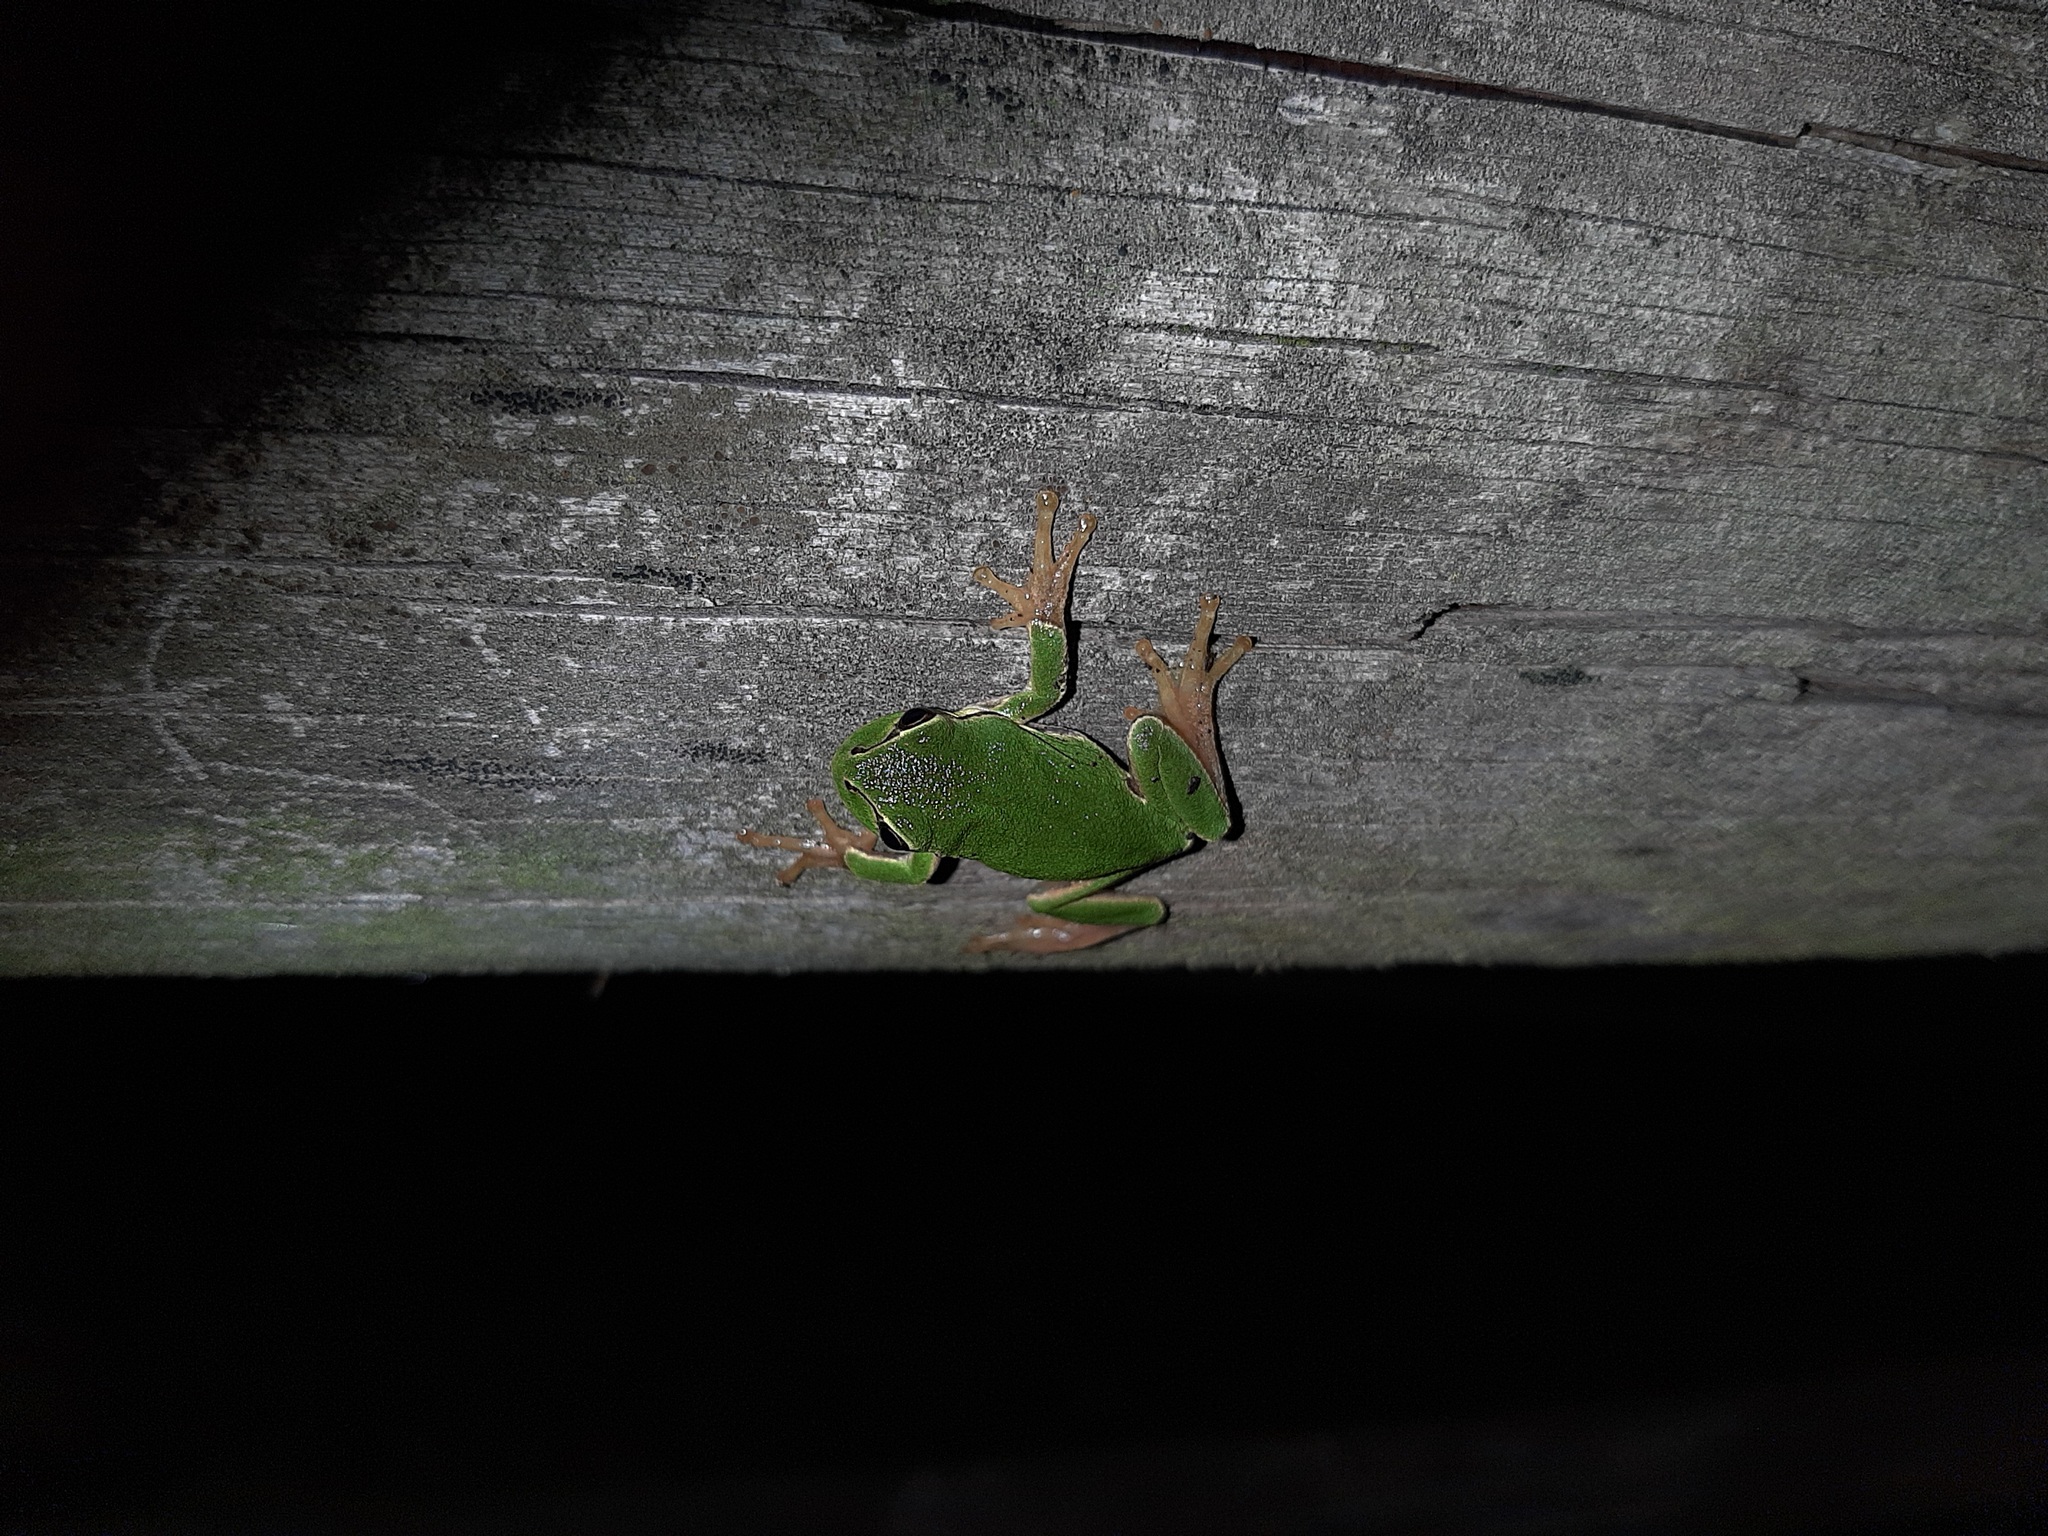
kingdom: Animalia
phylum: Chordata
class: Amphibia
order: Anura
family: Hylidae
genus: Hyla
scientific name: Hyla intermedia
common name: Italian tree frog
